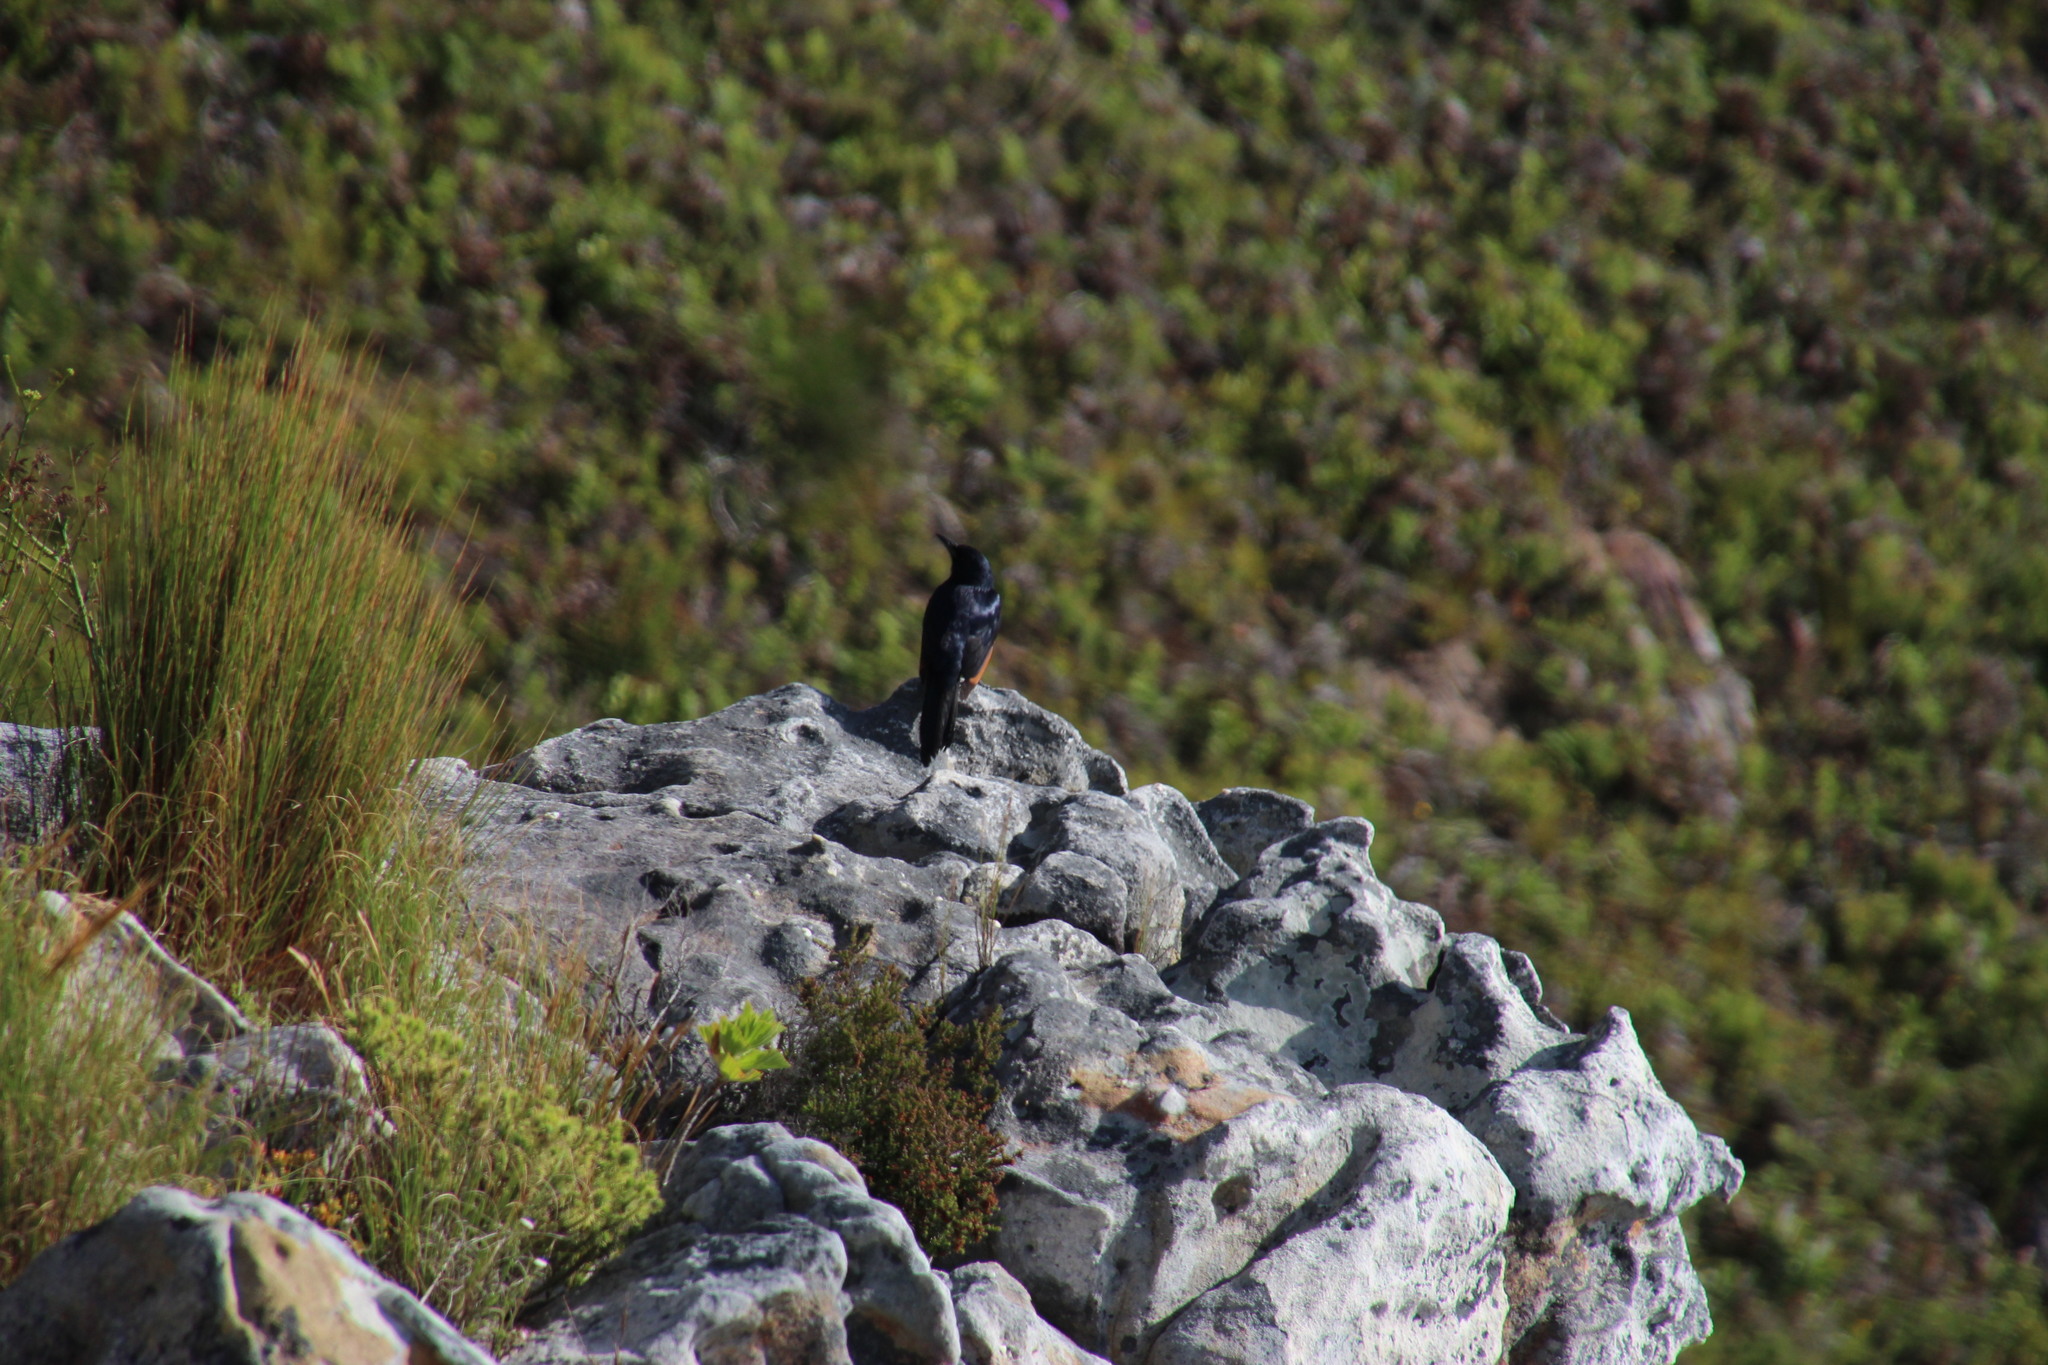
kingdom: Animalia
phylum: Chordata
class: Aves
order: Passeriformes
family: Sturnidae
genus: Onychognathus
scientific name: Onychognathus morio
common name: Red-winged starling
